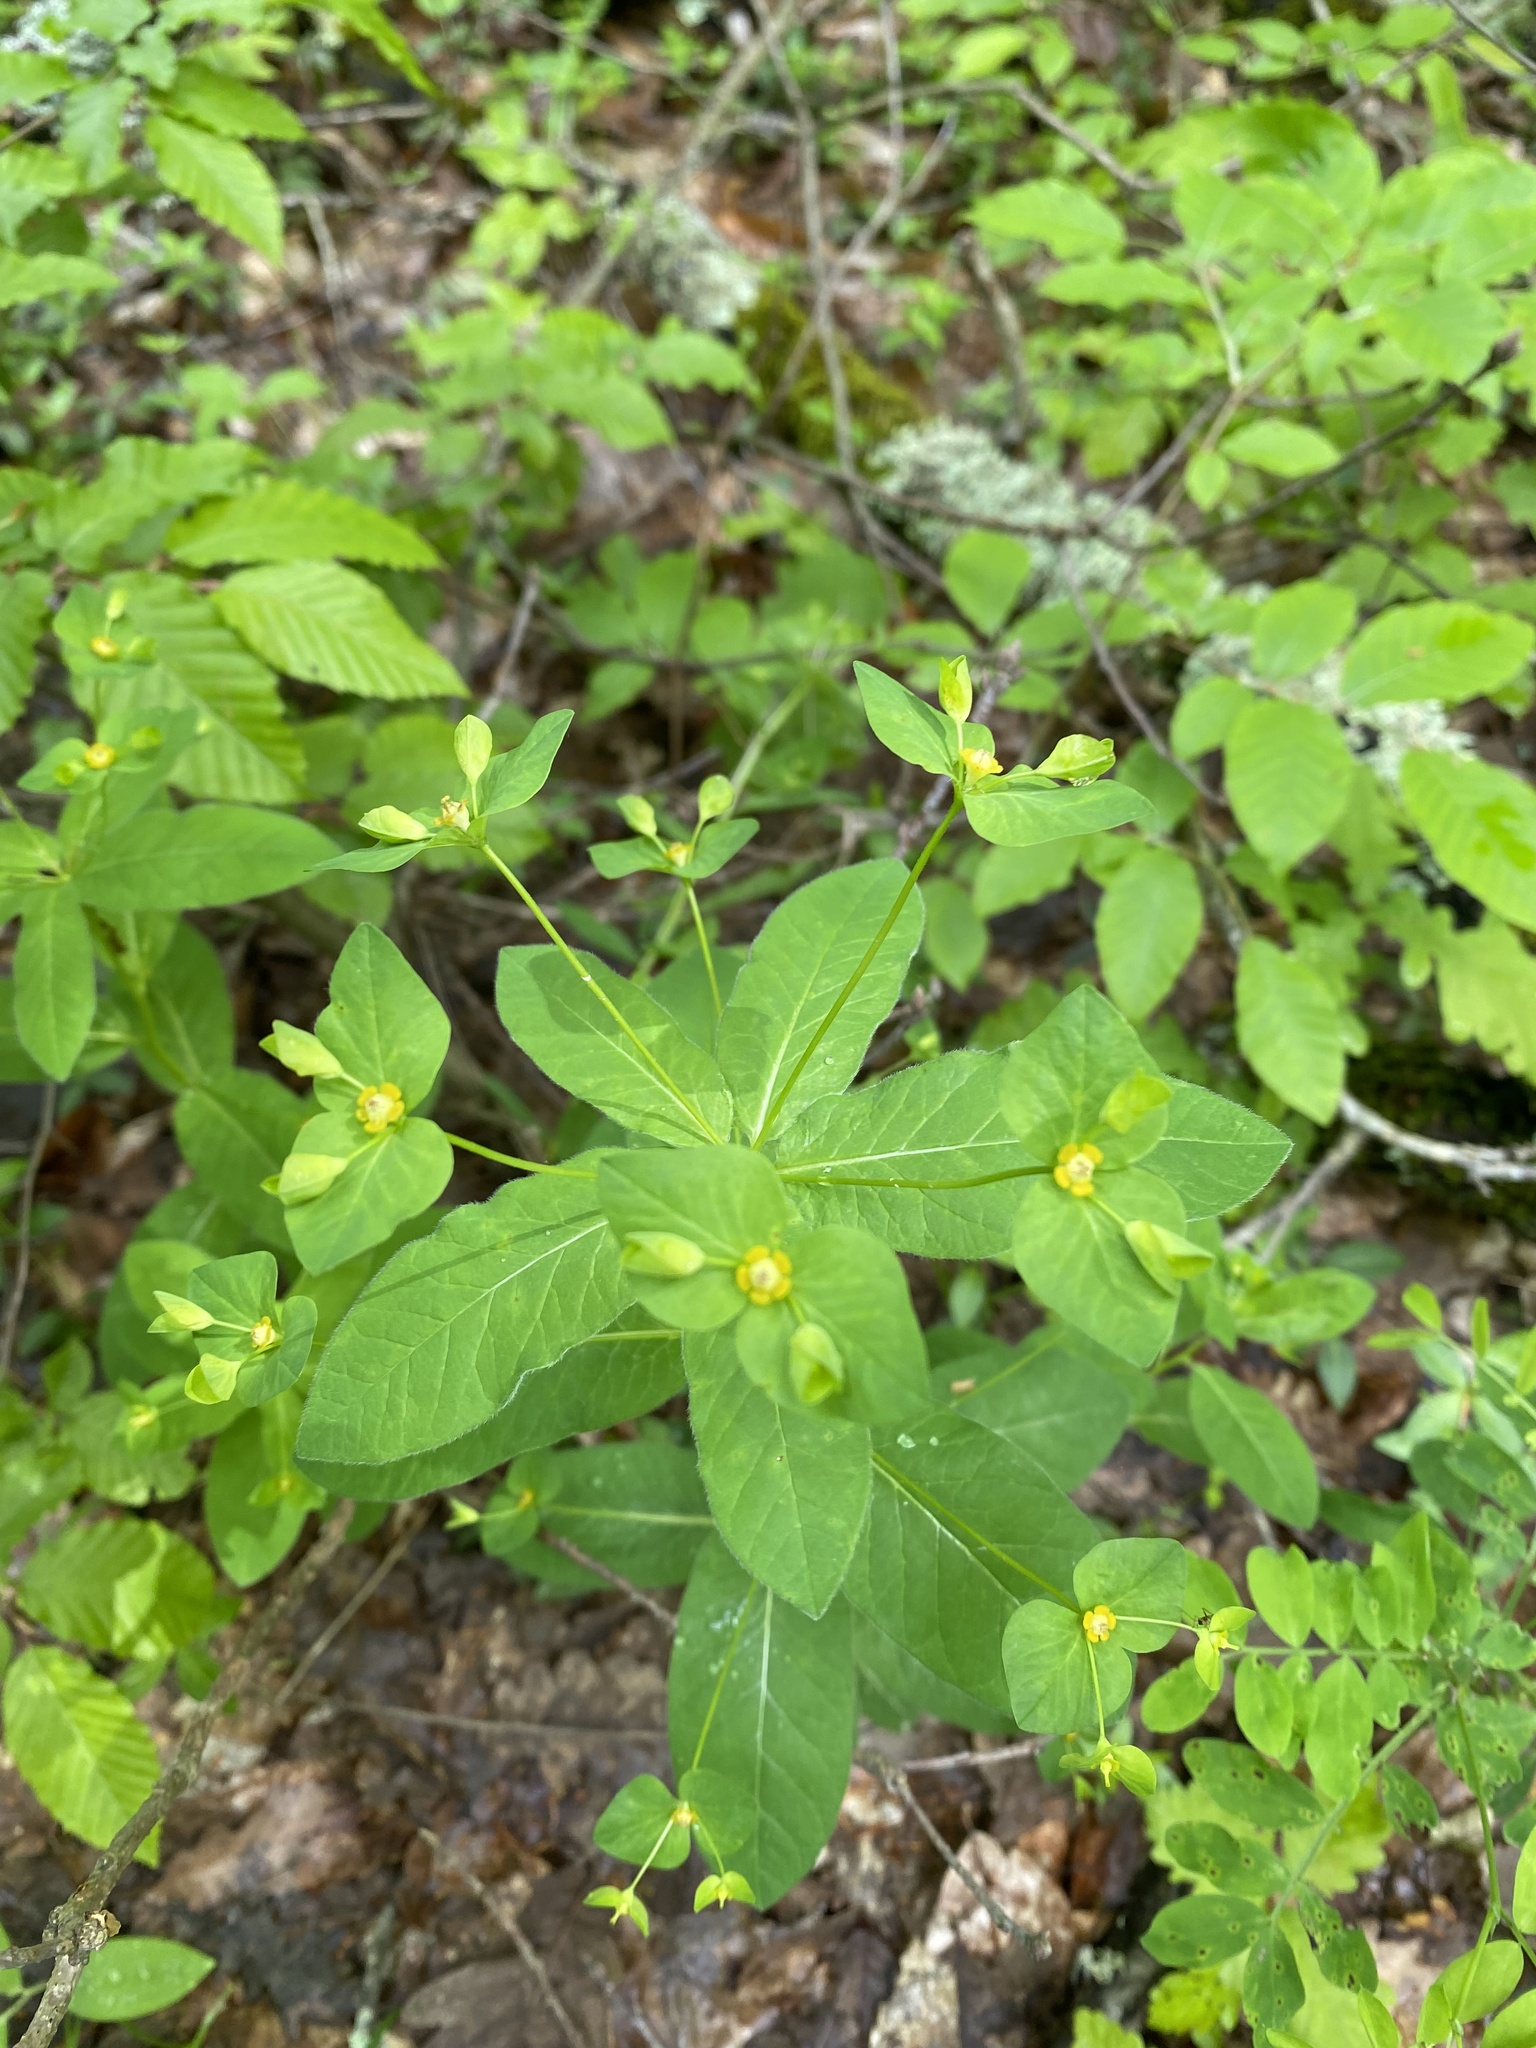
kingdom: Plantae
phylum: Tracheophyta
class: Magnoliopsida
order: Malpighiales
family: Euphorbiaceae
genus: Euphorbia
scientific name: Euphorbia squamosa
